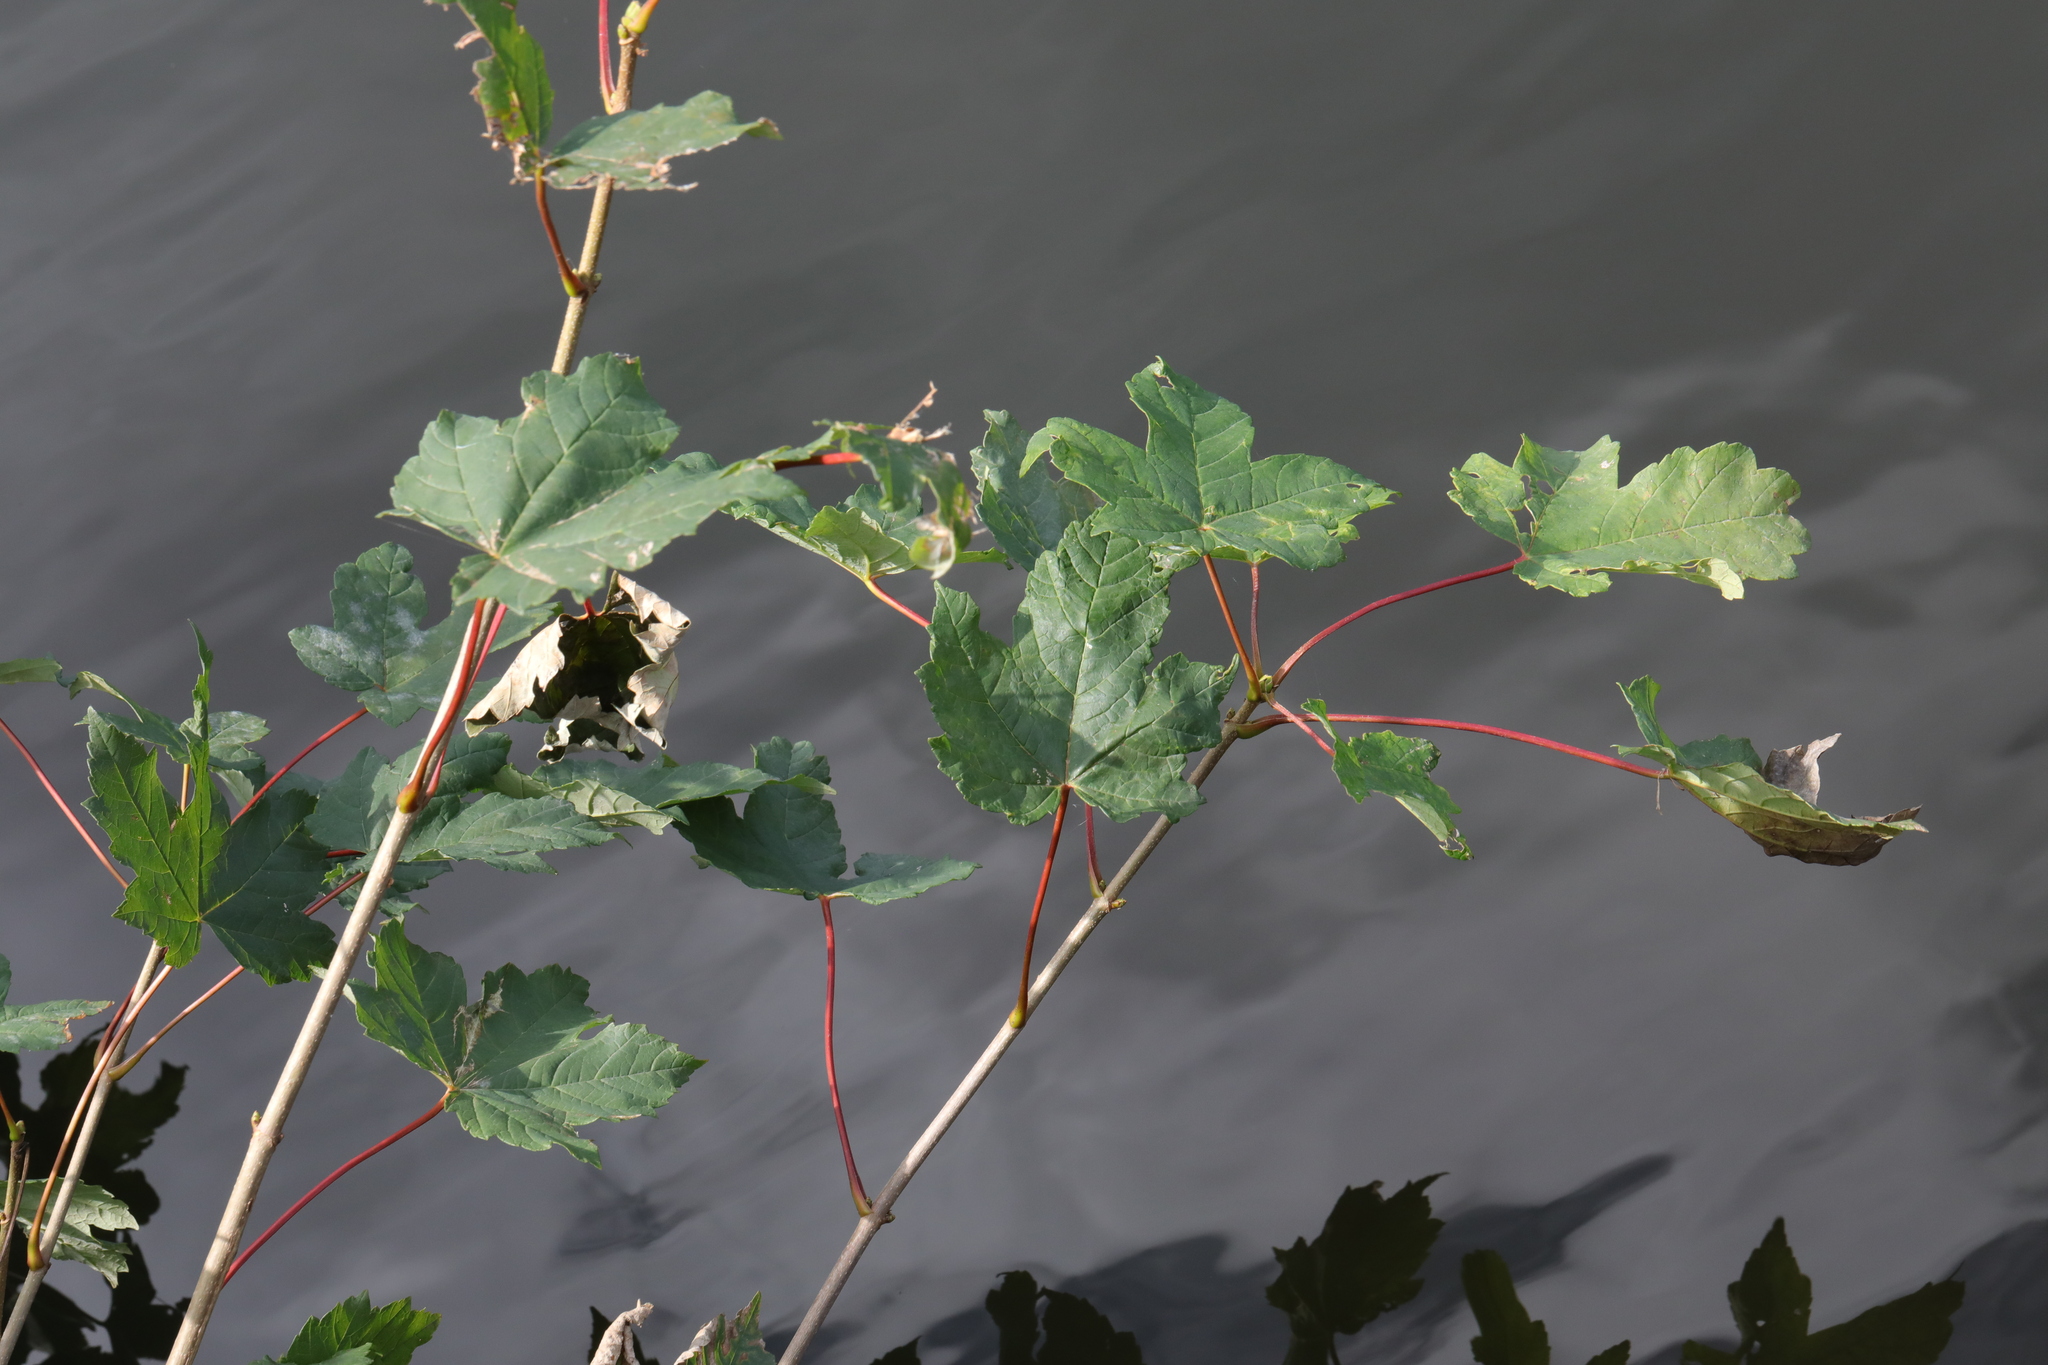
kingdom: Plantae
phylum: Tracheophyta
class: Magnoliopsida
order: Sapindales
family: Sapindaceae
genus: Acer
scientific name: Acer pseudoplatanus
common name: Sycamore
